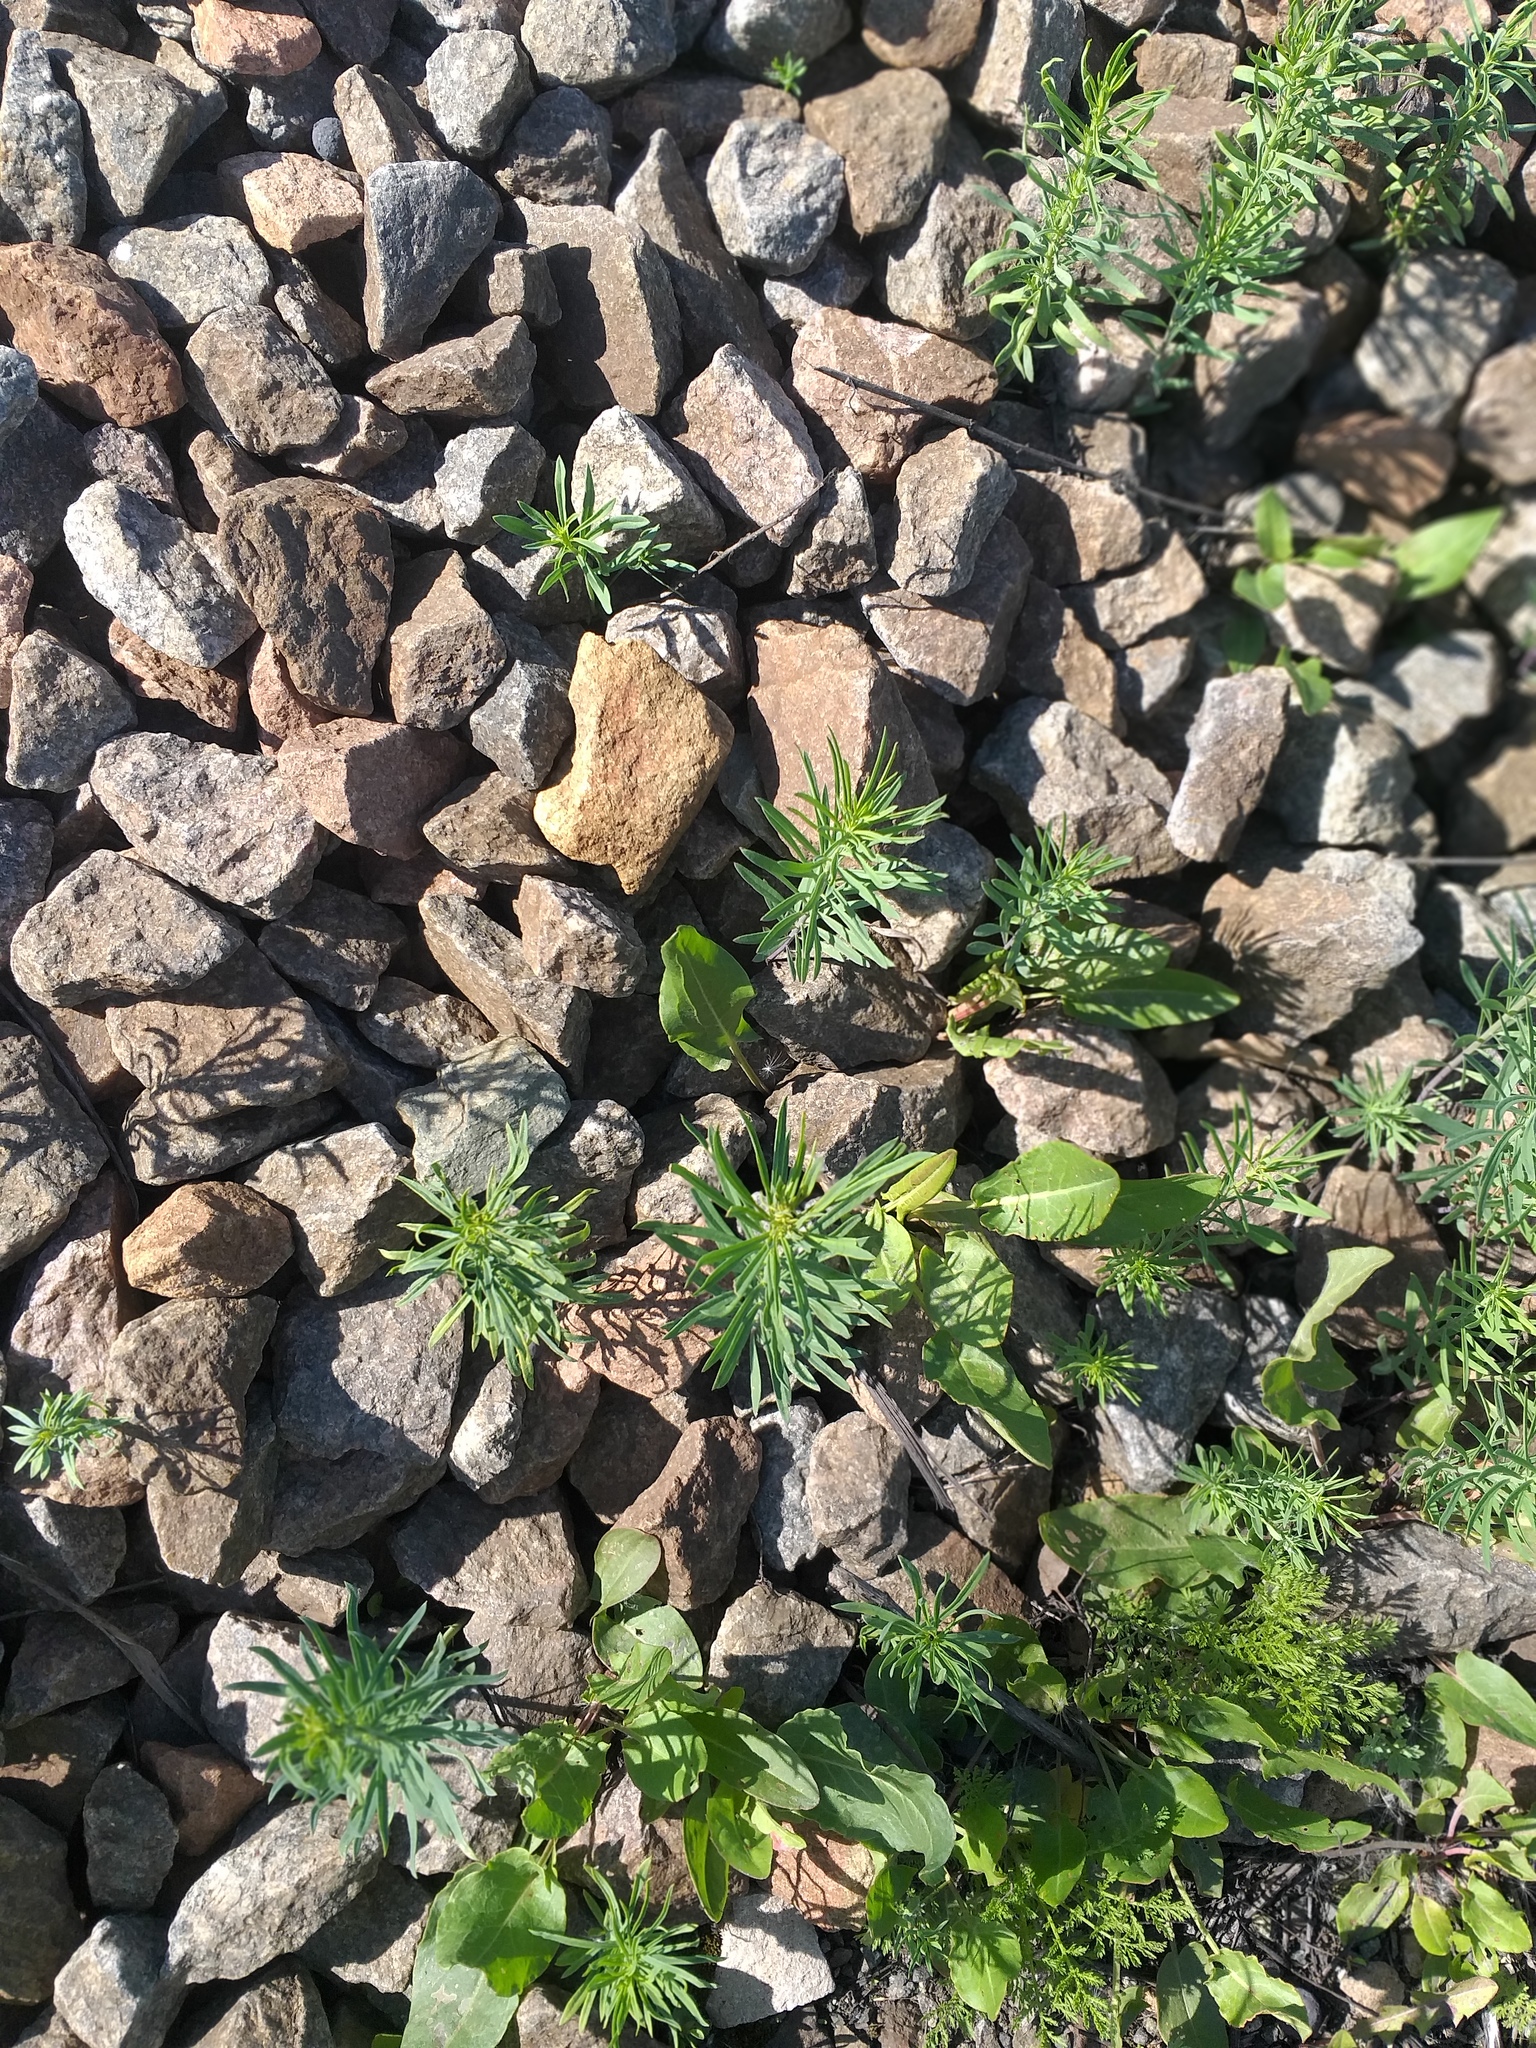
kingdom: Plantae
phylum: Tracheophyta
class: Magnoliopsida
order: Lamiales
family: Plantaginaceae
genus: Linaria
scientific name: Linaria vulgaris
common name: Butter and eggs
